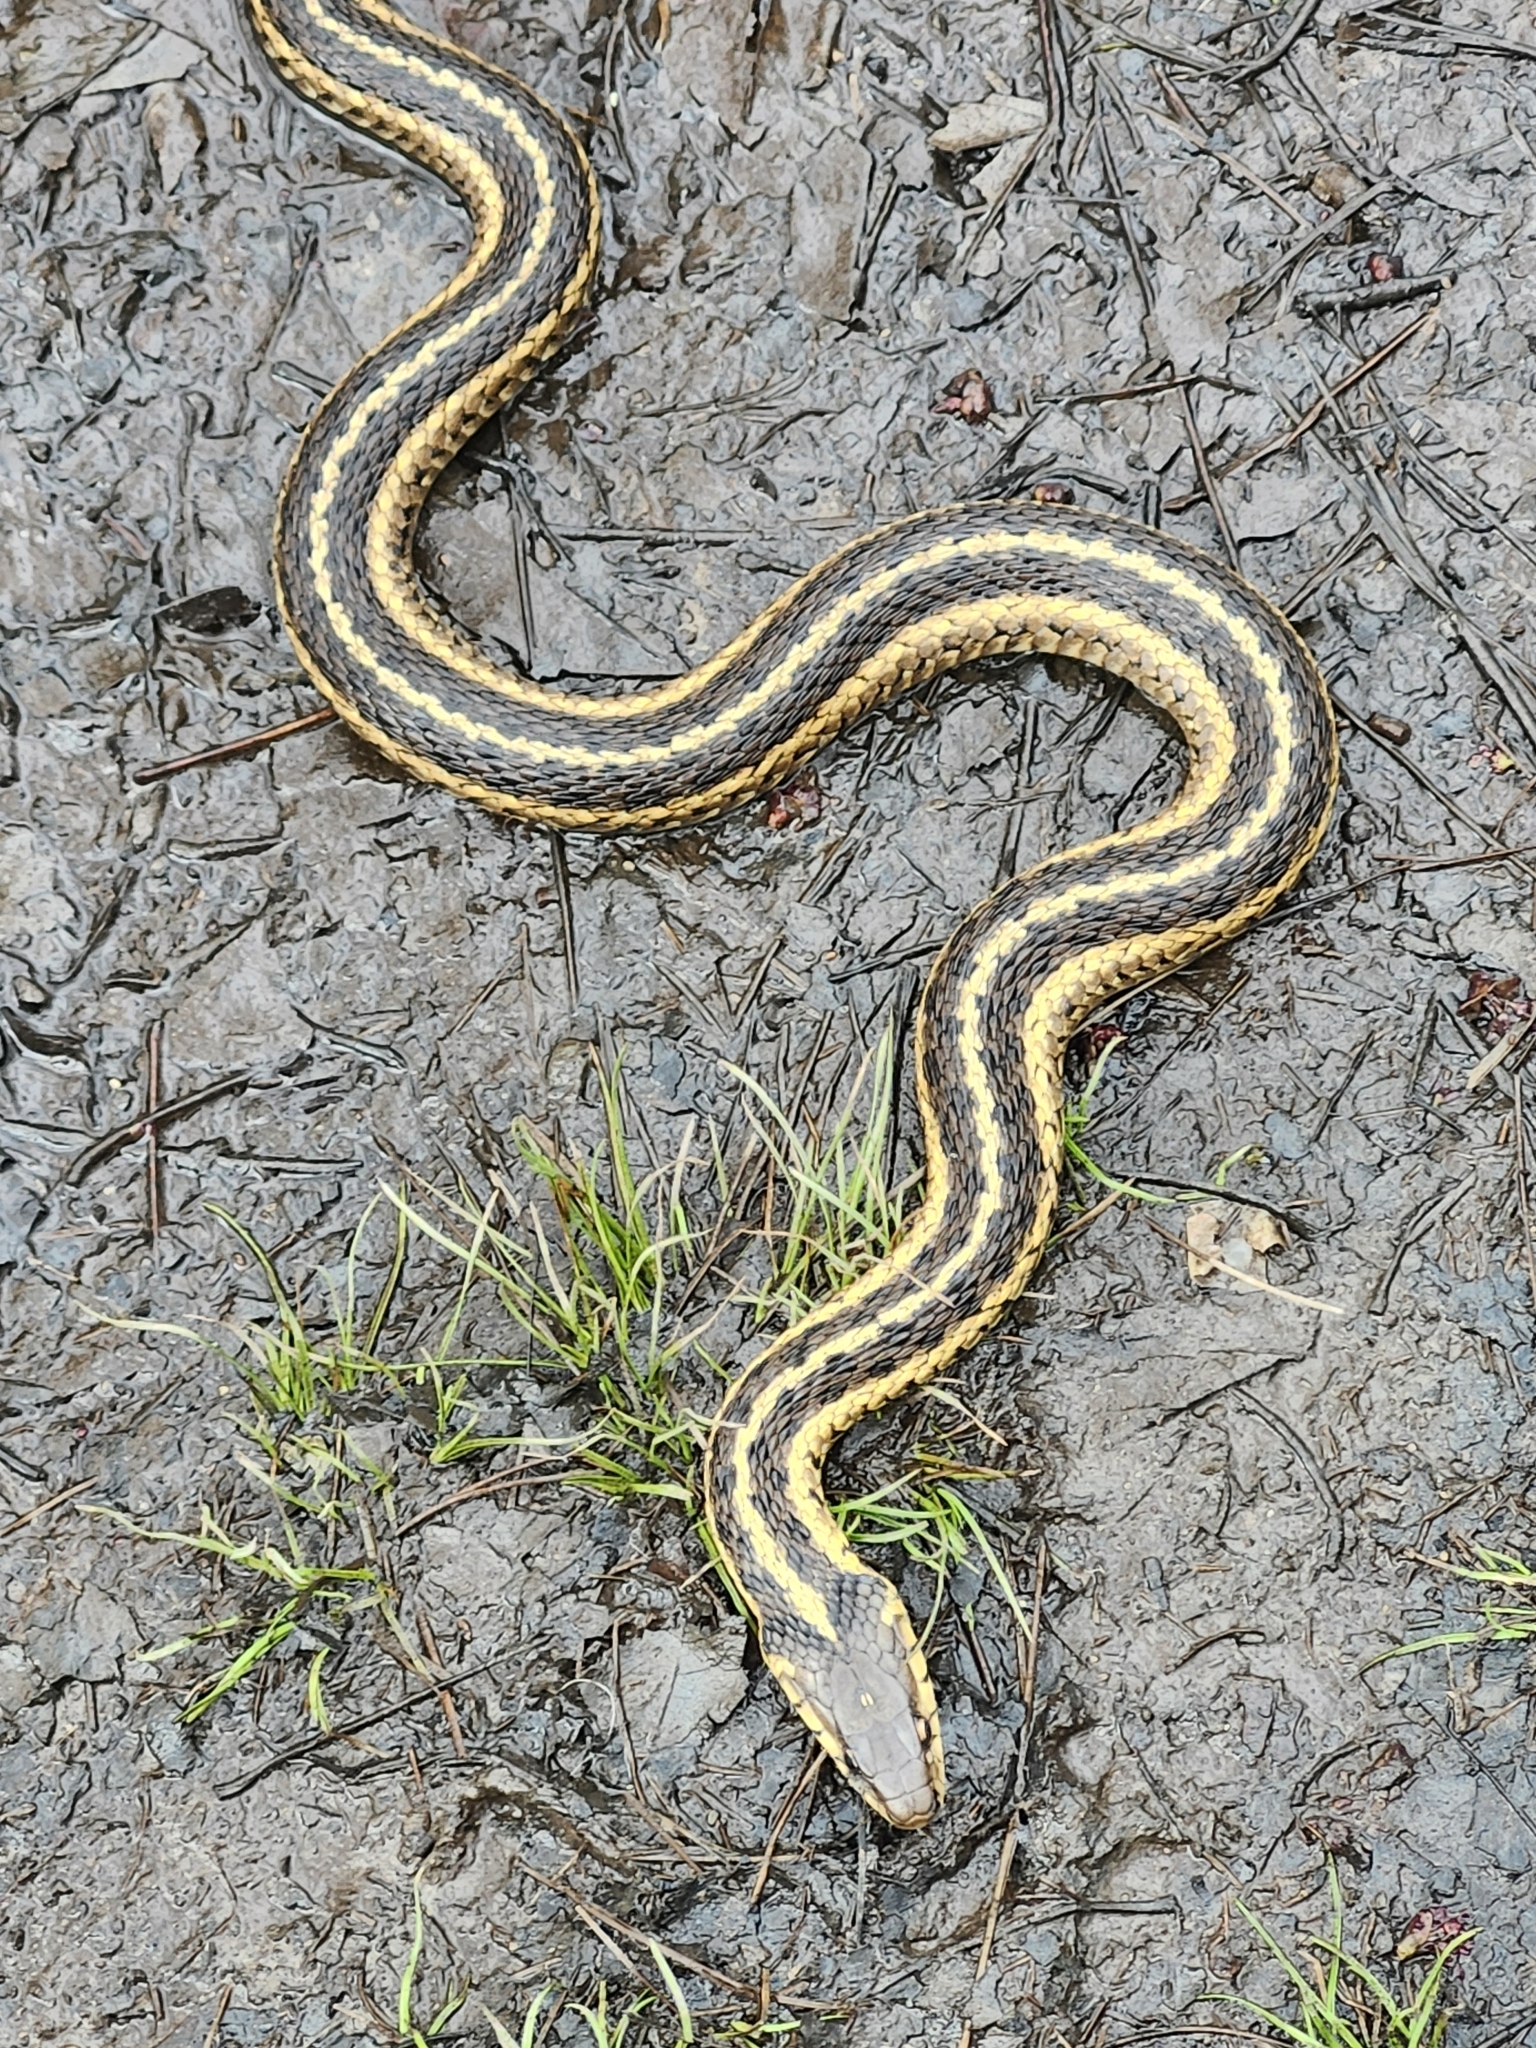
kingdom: Animalia
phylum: Chordata
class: Squamata
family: Colubridae
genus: Thamnophis
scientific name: Thamnophis sirtalis
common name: Common garter snake
